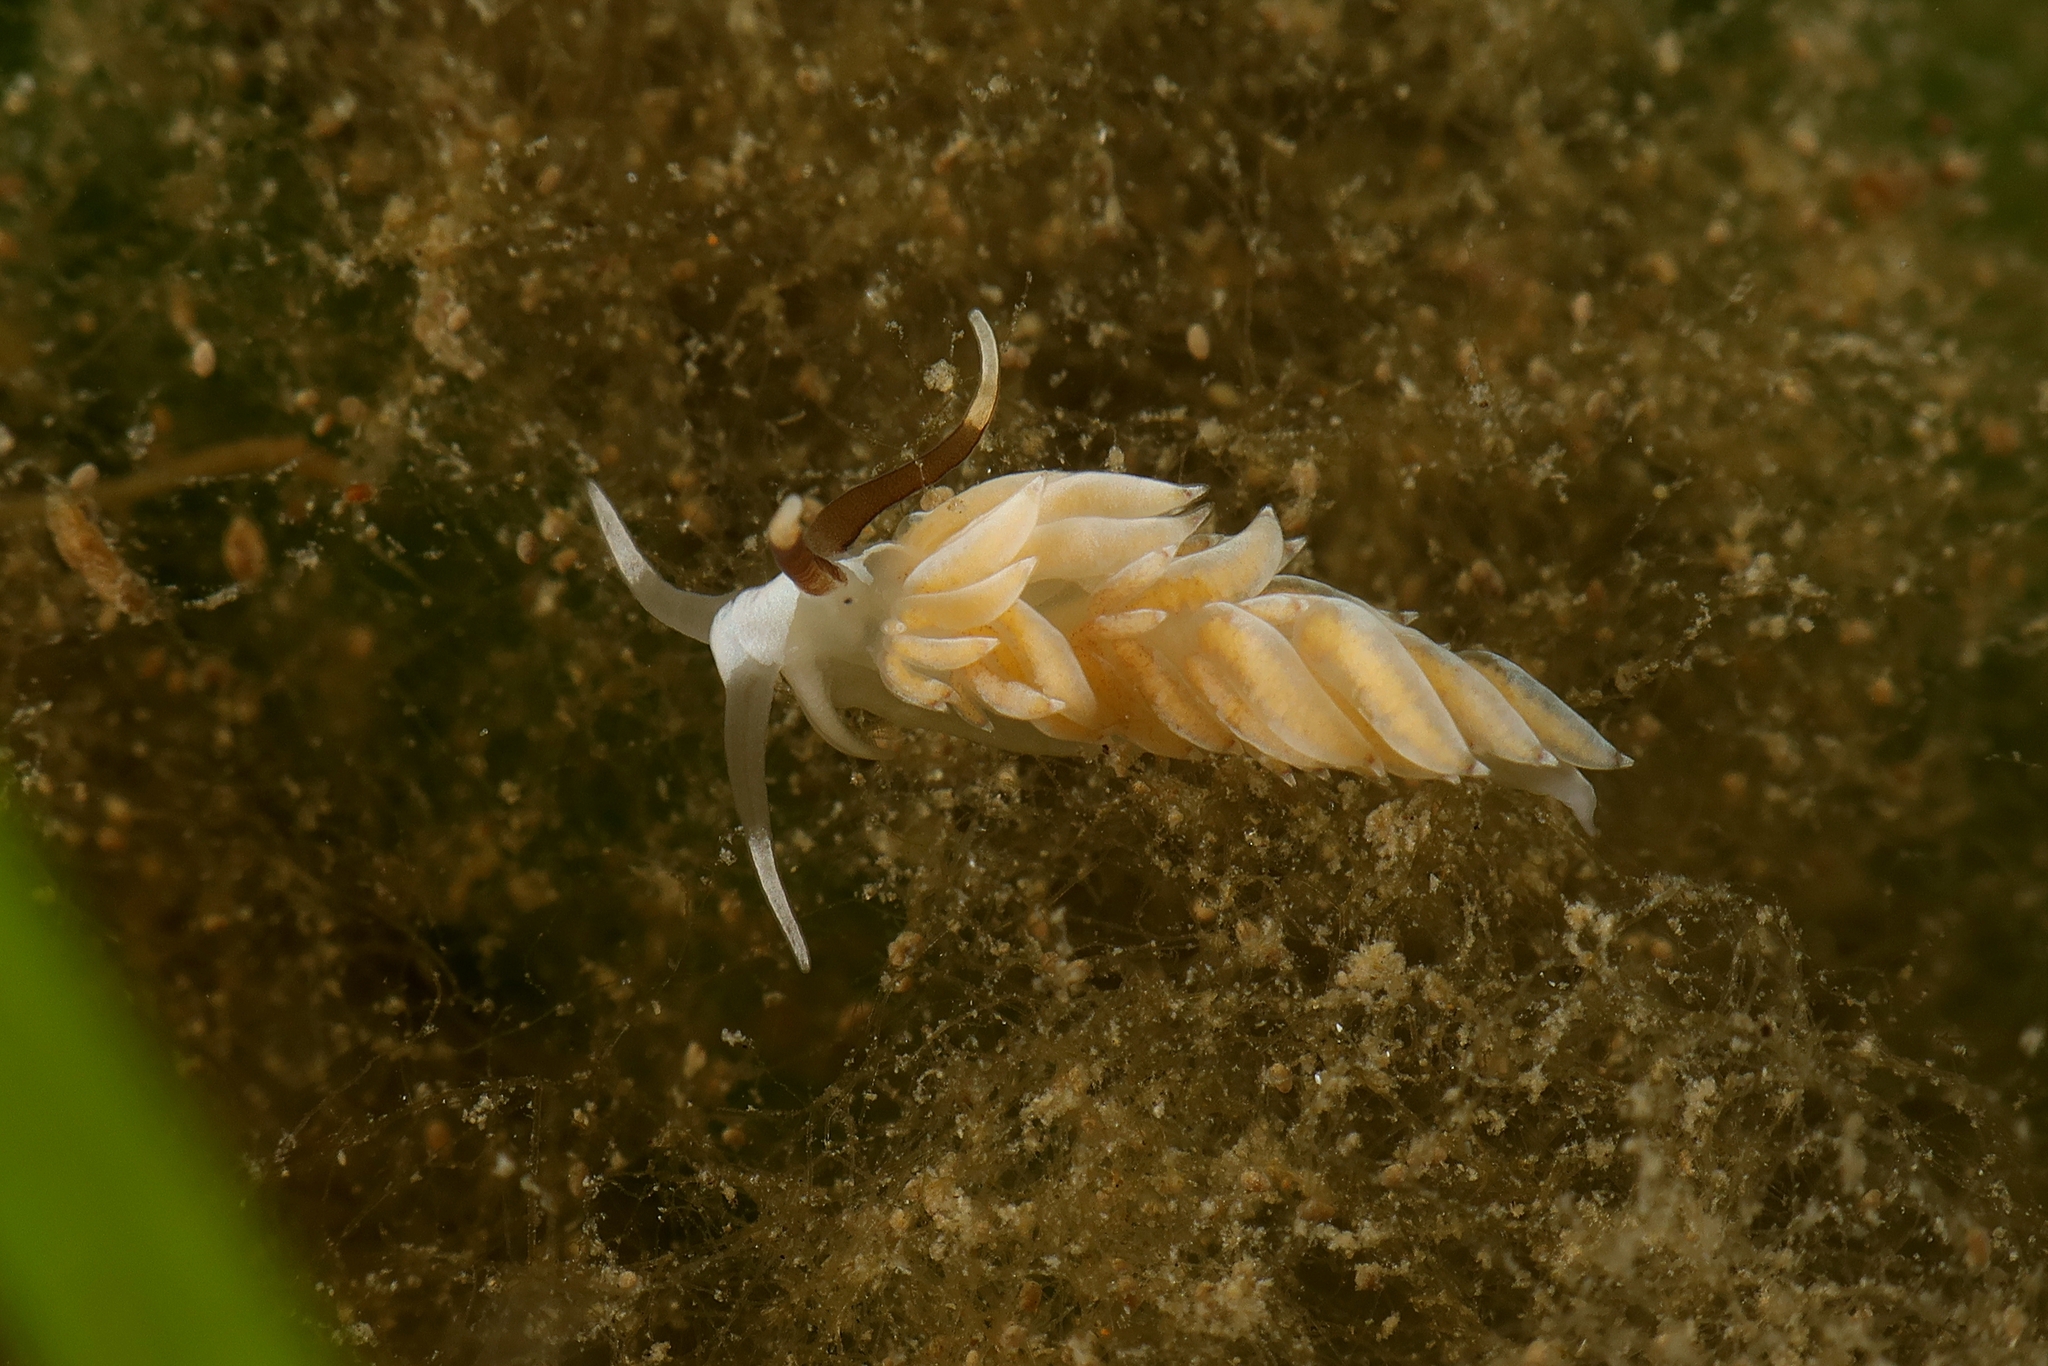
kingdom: Animalia
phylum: Mollusca
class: Gastropoda
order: Nudibranchia
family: Facelinidae
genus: Favorinus
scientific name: Favorinus branchialis
